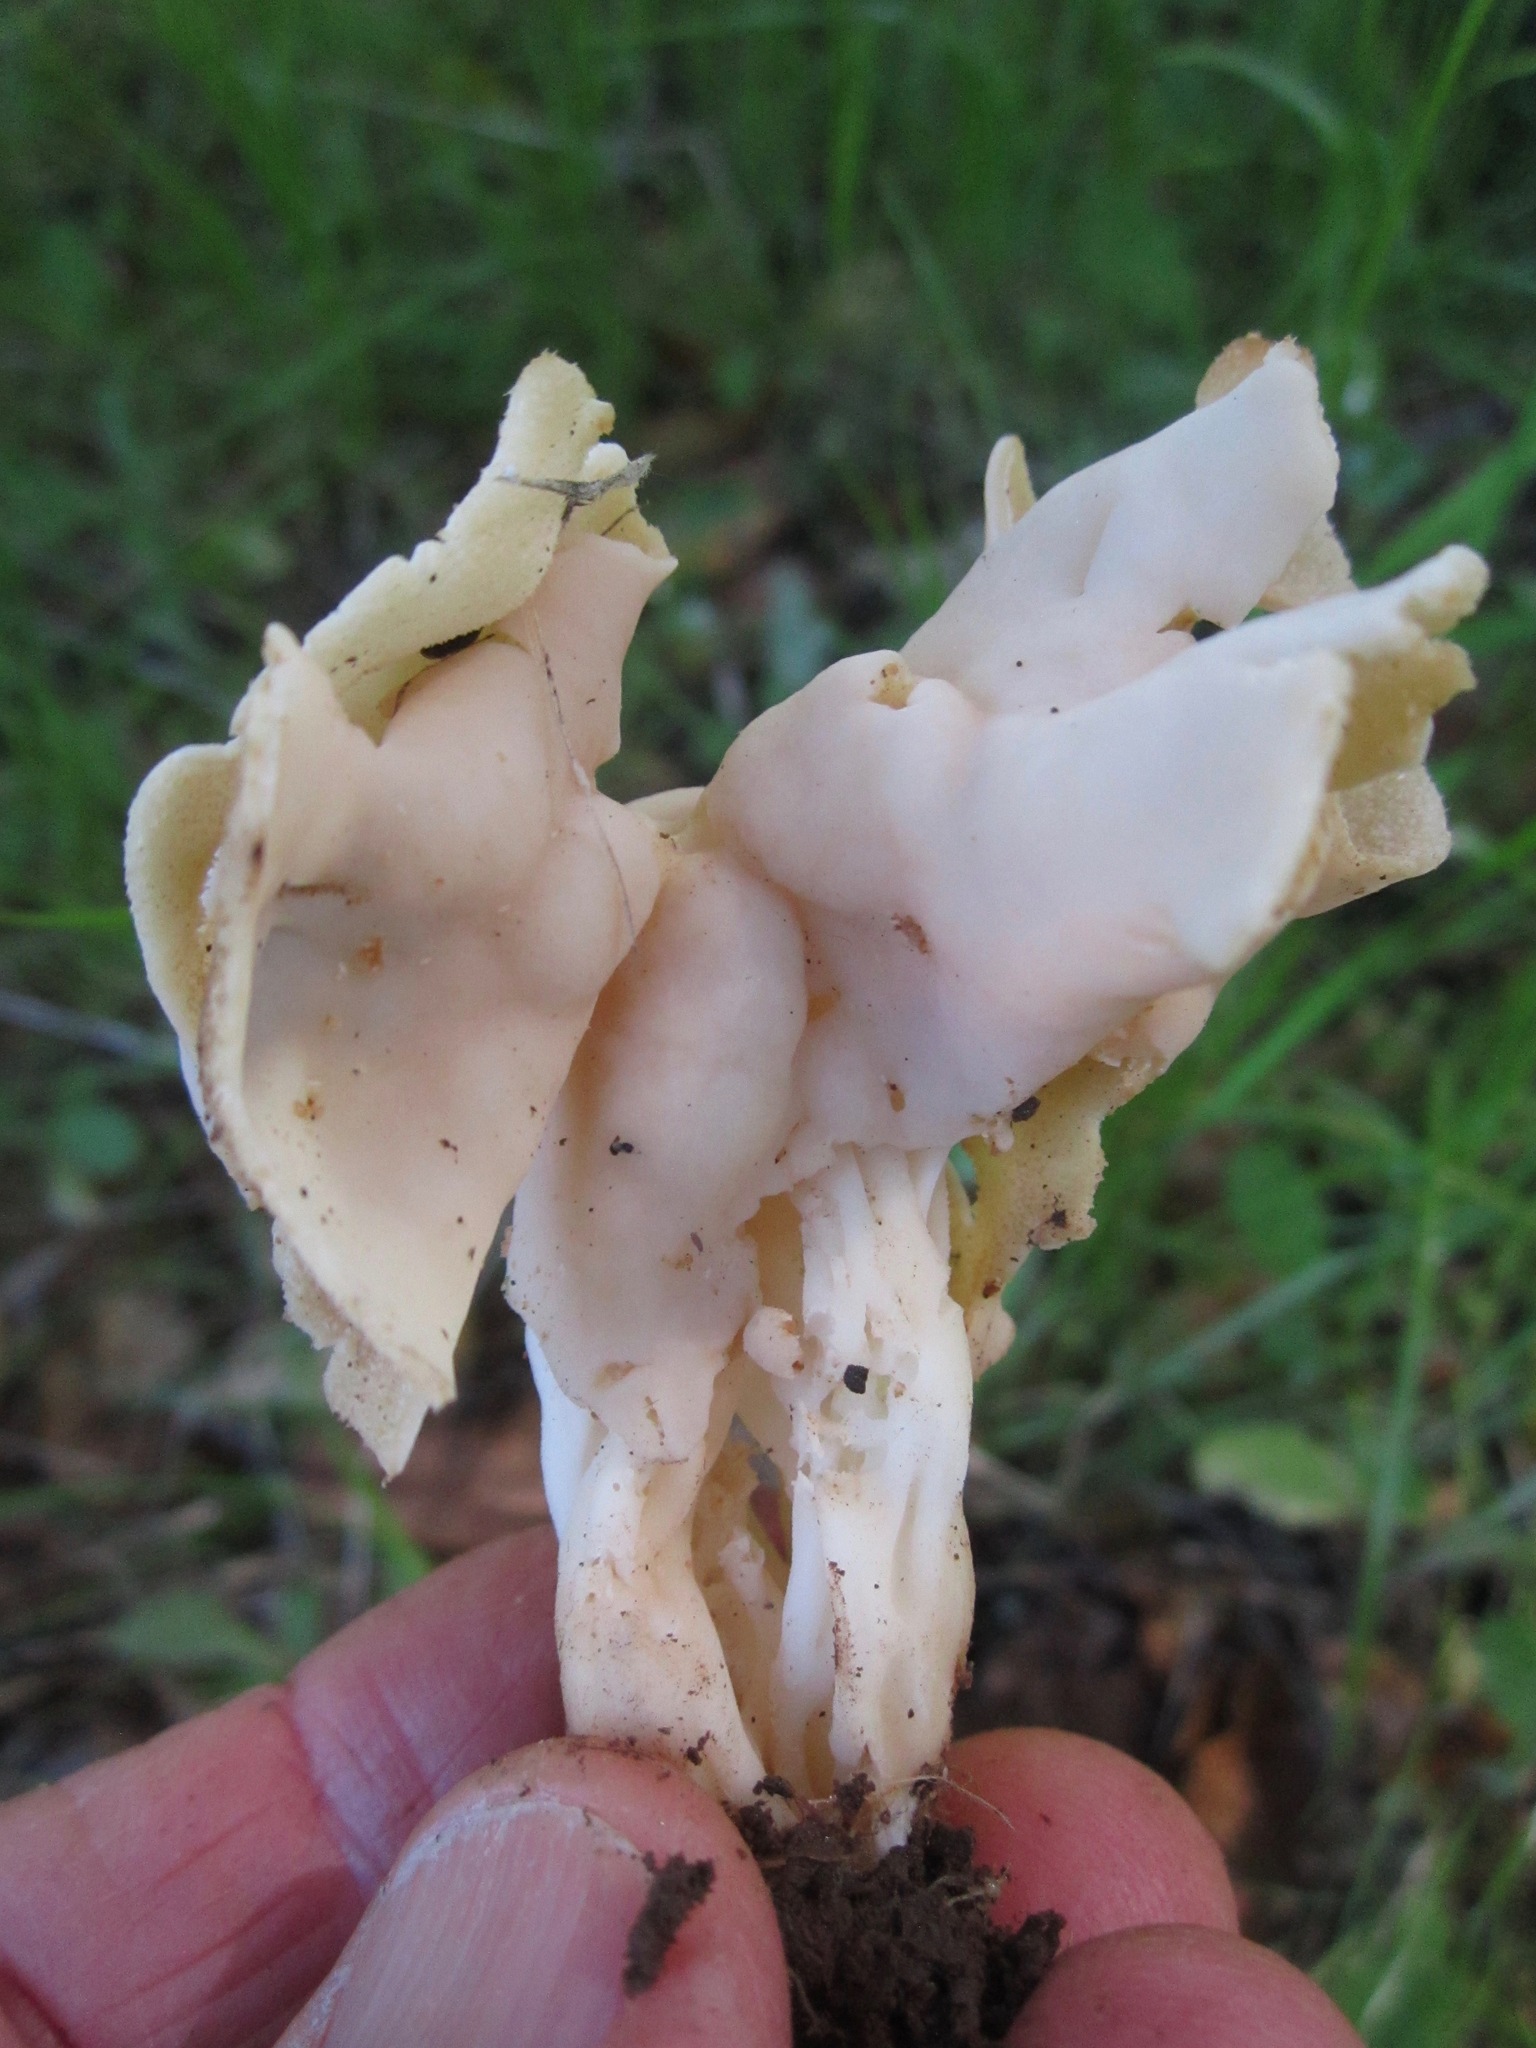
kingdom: Fungi
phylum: Ascomycota
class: Pezizomycetes
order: Pezizales
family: Helvellaceae
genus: Helvella
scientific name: Helvella crispa
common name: White saddle
